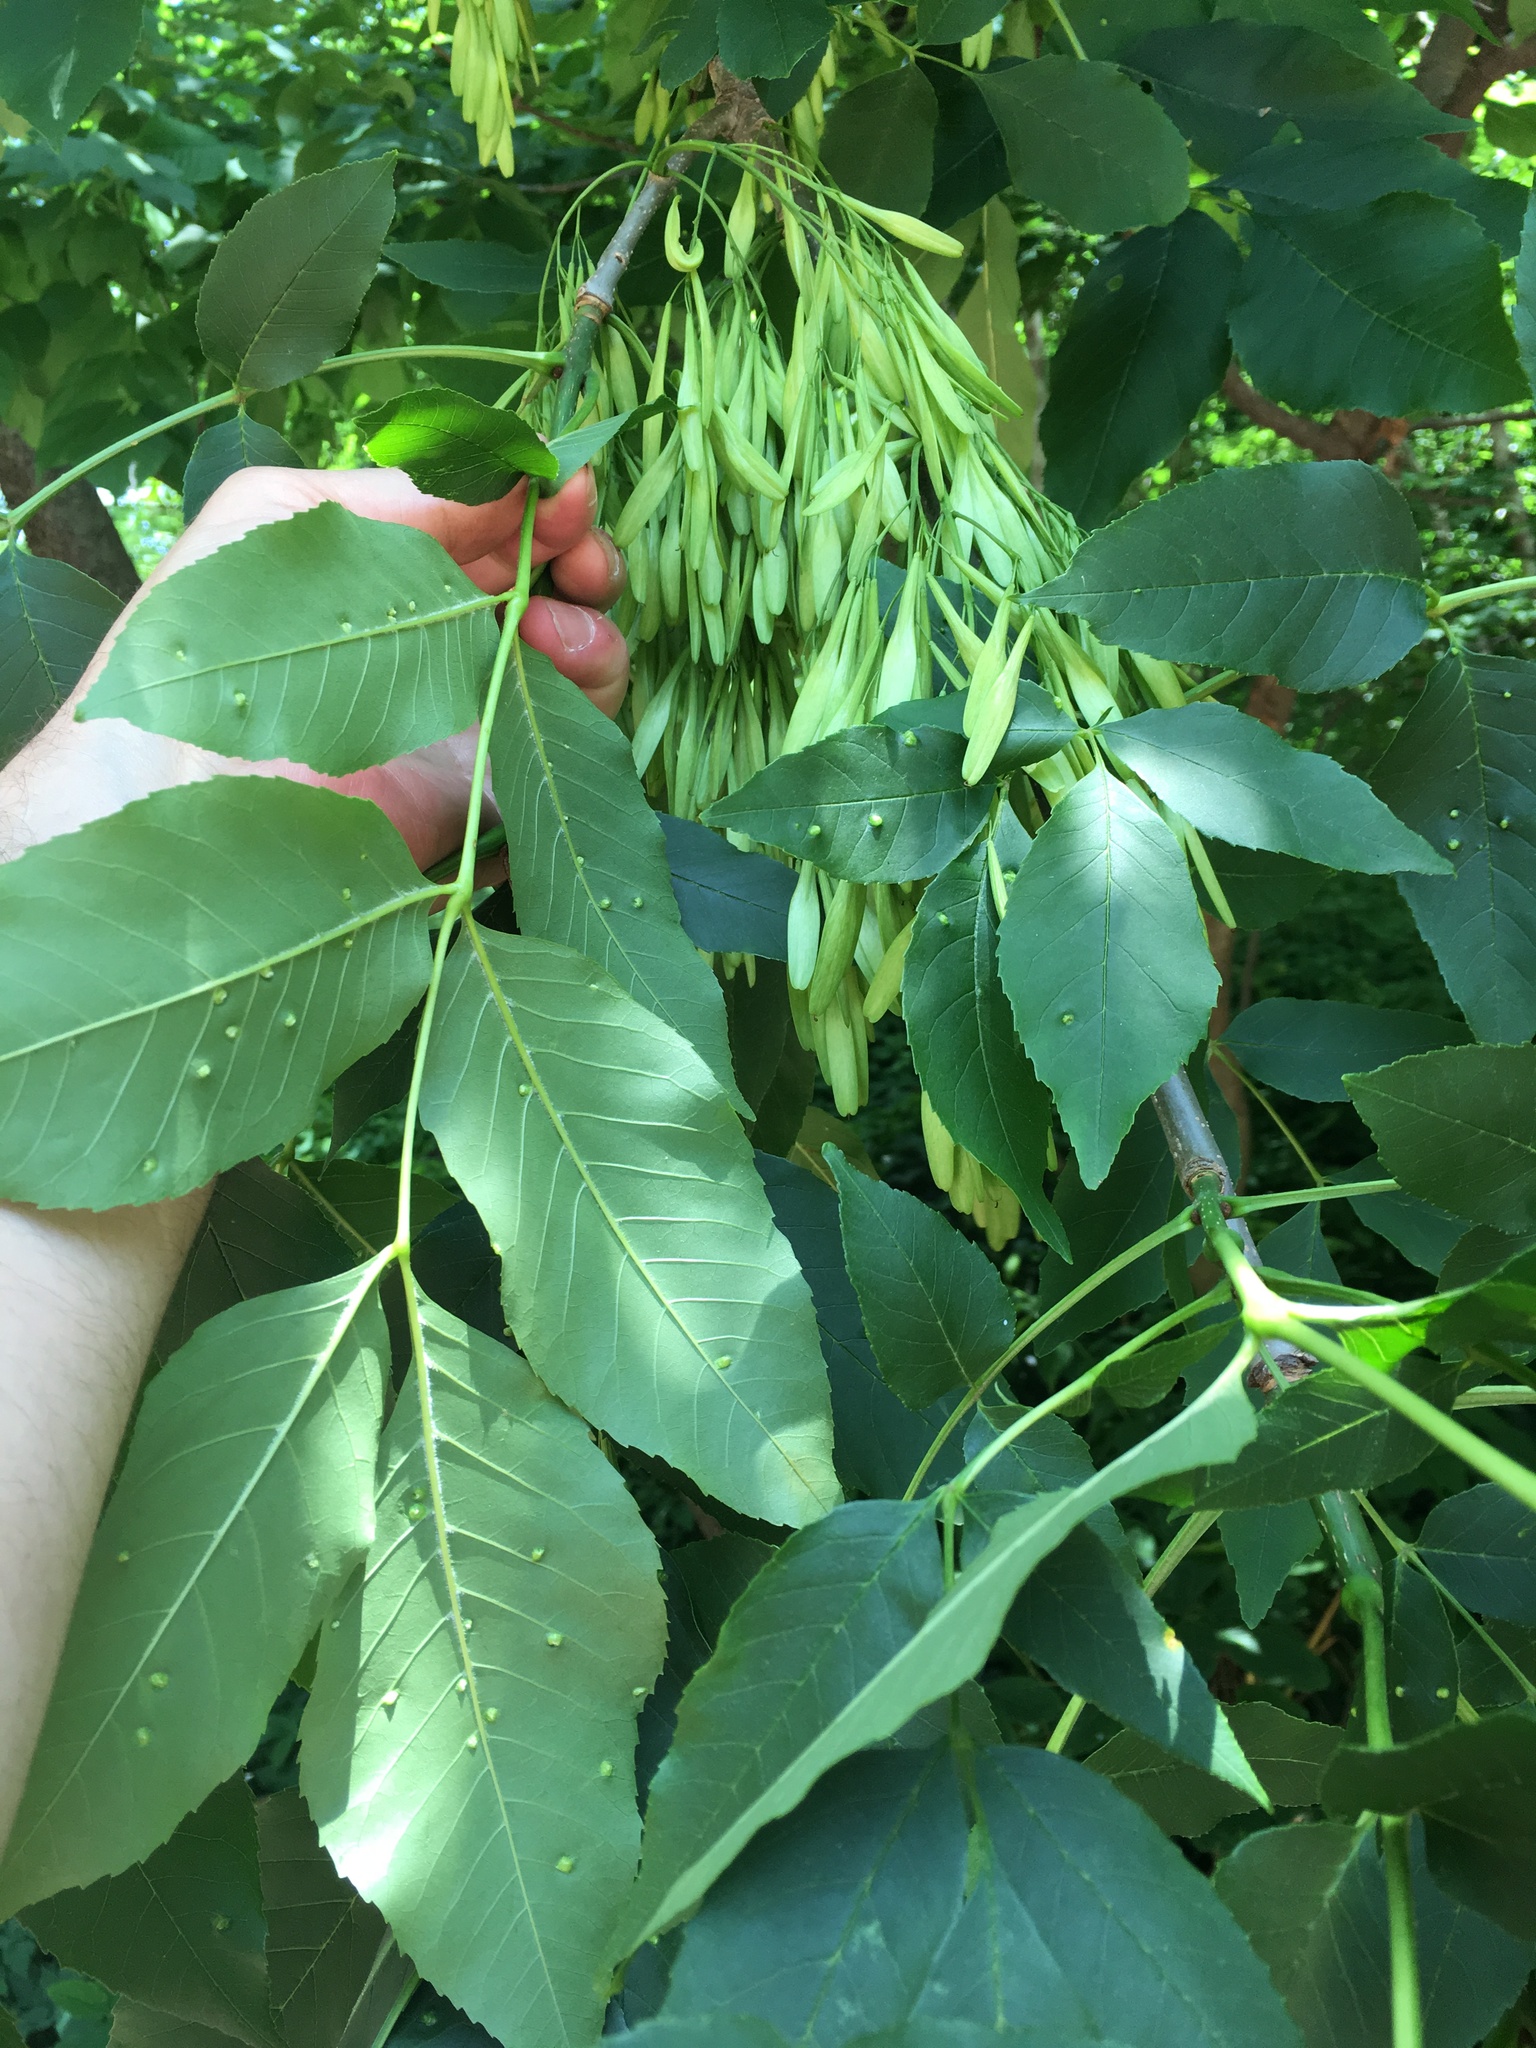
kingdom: Plantae
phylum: Tracheophyta
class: Magnoliopsida
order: Lamiales
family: Oleaceae
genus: Fraxinus
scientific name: Fraxinus pennsylvanica
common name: Green ash
